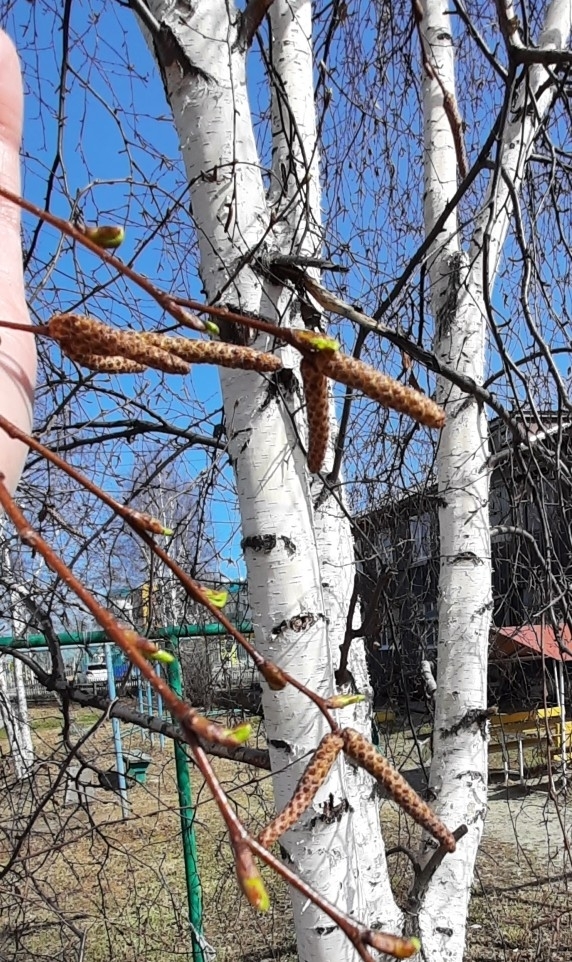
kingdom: Plantae
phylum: Tracheophyta
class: Magnoliopsida
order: Fagales
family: Betulaceae
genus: Betula
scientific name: Betula pendula
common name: Silver birch
